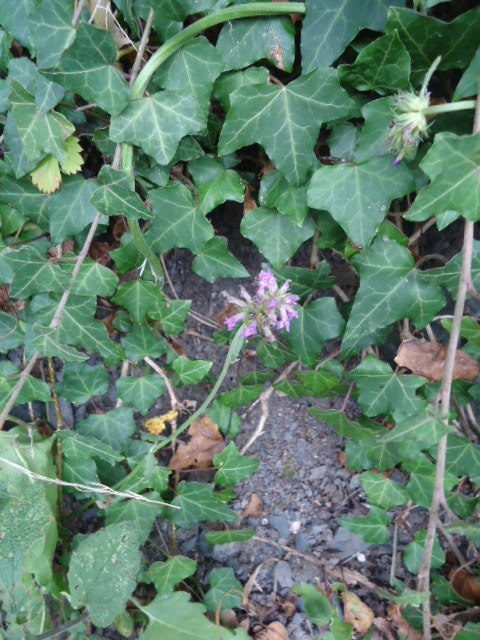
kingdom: Plantae
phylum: Tracheophyta
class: Magnoliopsida
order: Lamiales
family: Lamiaceae
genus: Betonica
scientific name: Betonica officinalis
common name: Bishop's-wort
